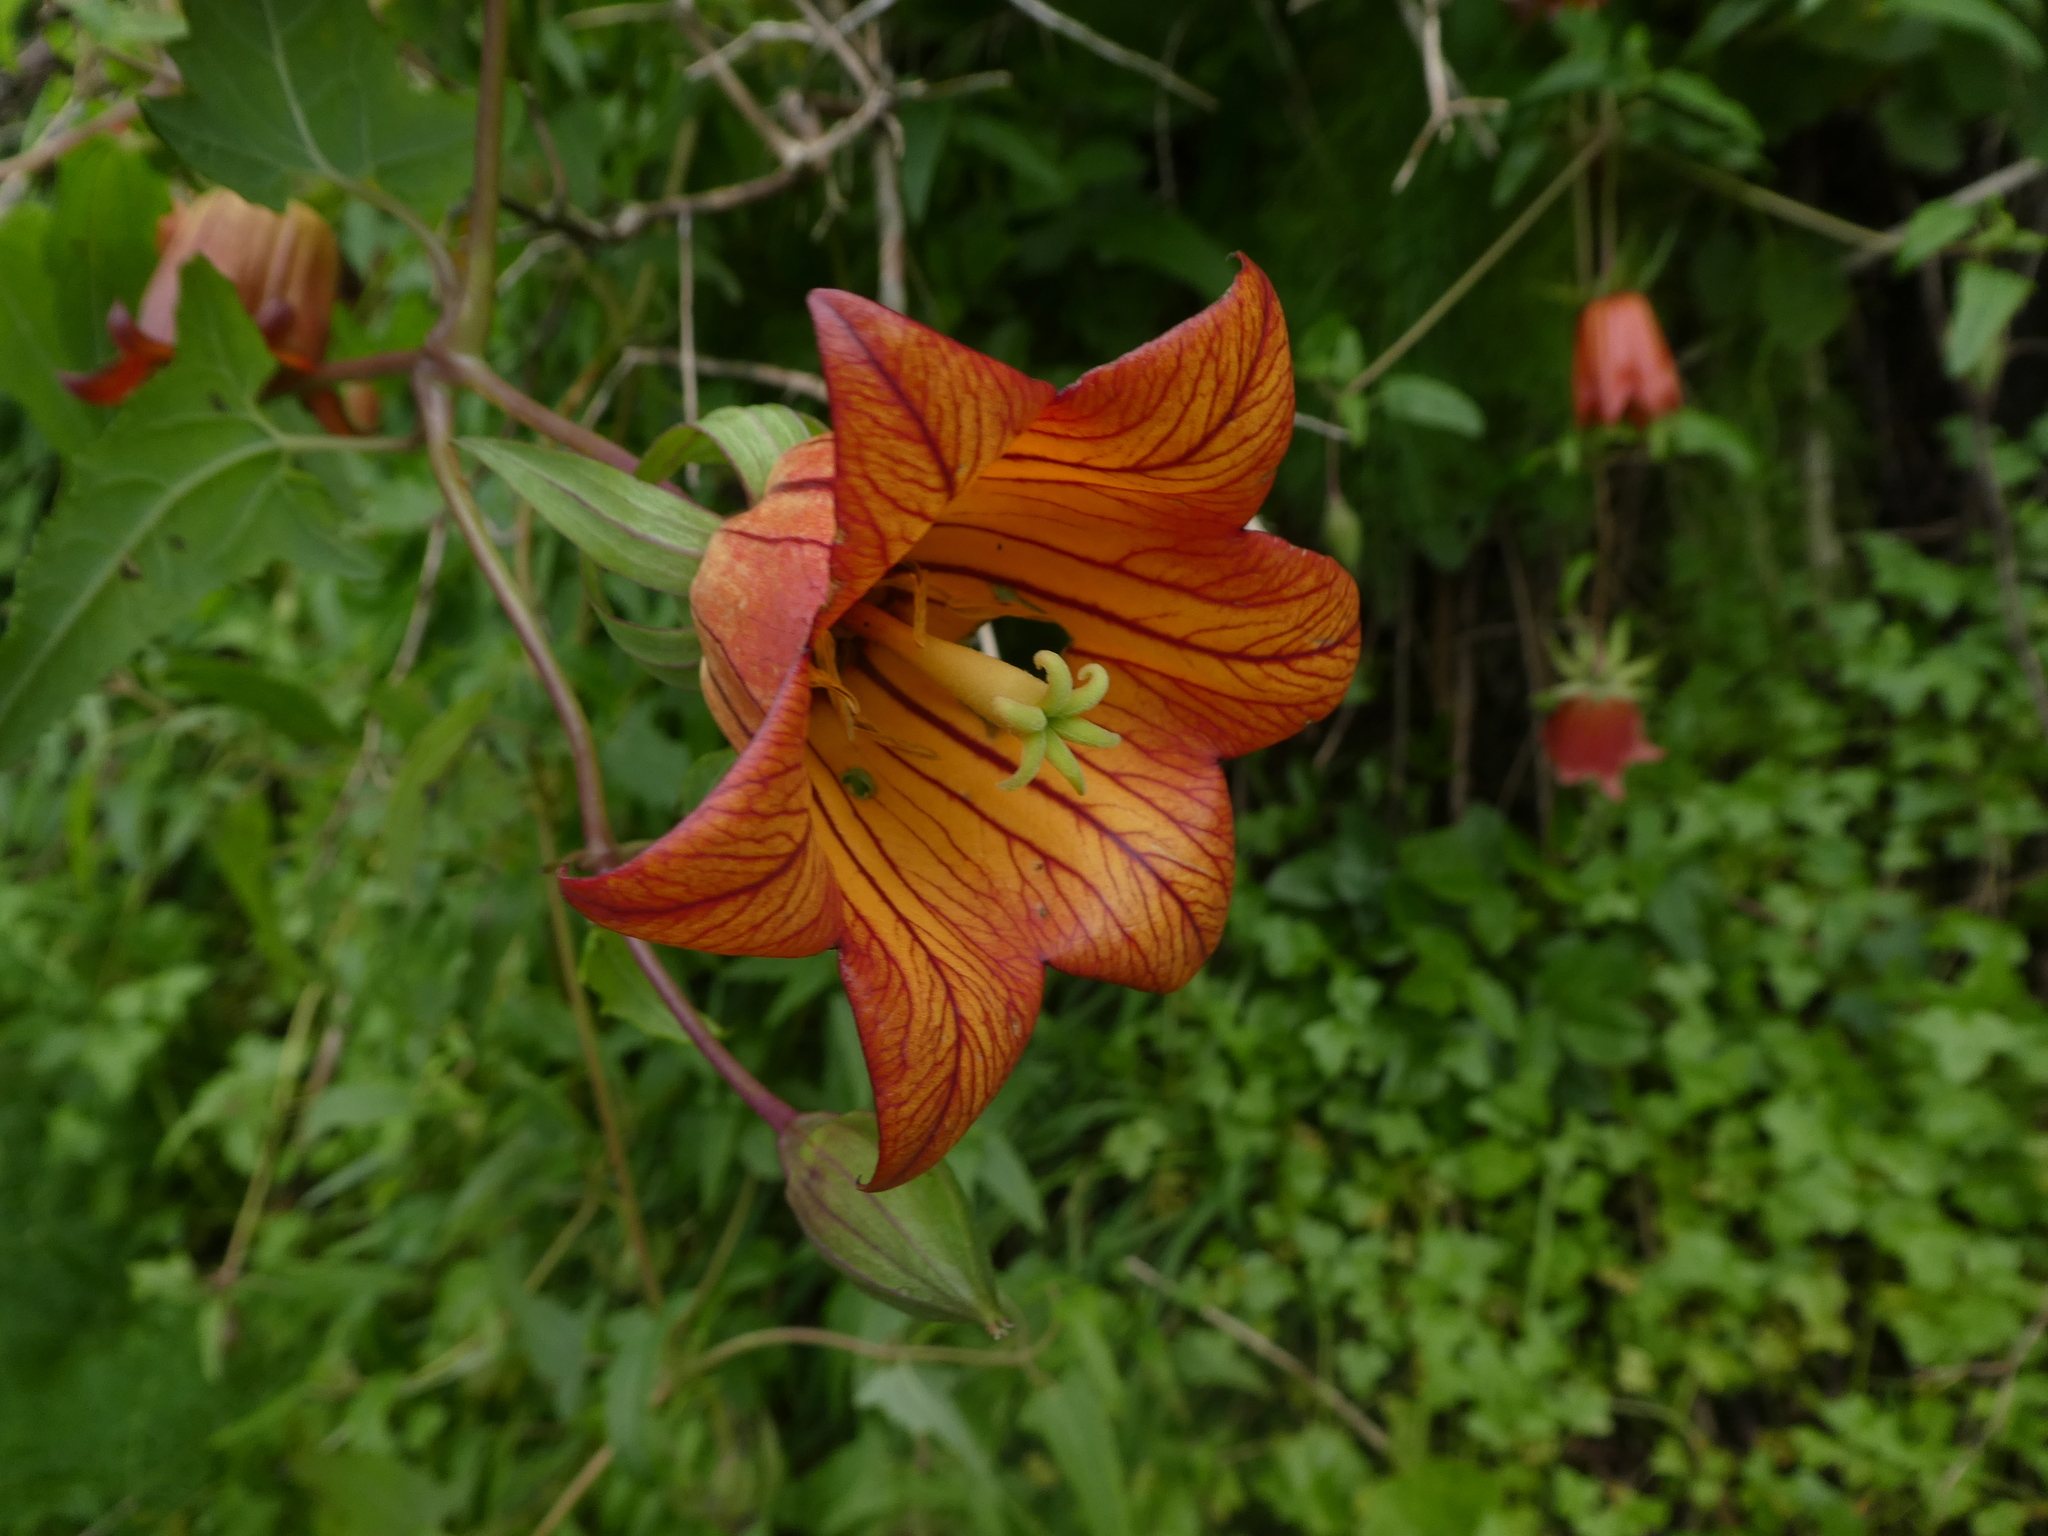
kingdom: Plantae
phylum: Tracheophyta
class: Magnoliopsida
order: Asterales
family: Campanulaceae
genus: Canarina
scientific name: Canarina canariensis
